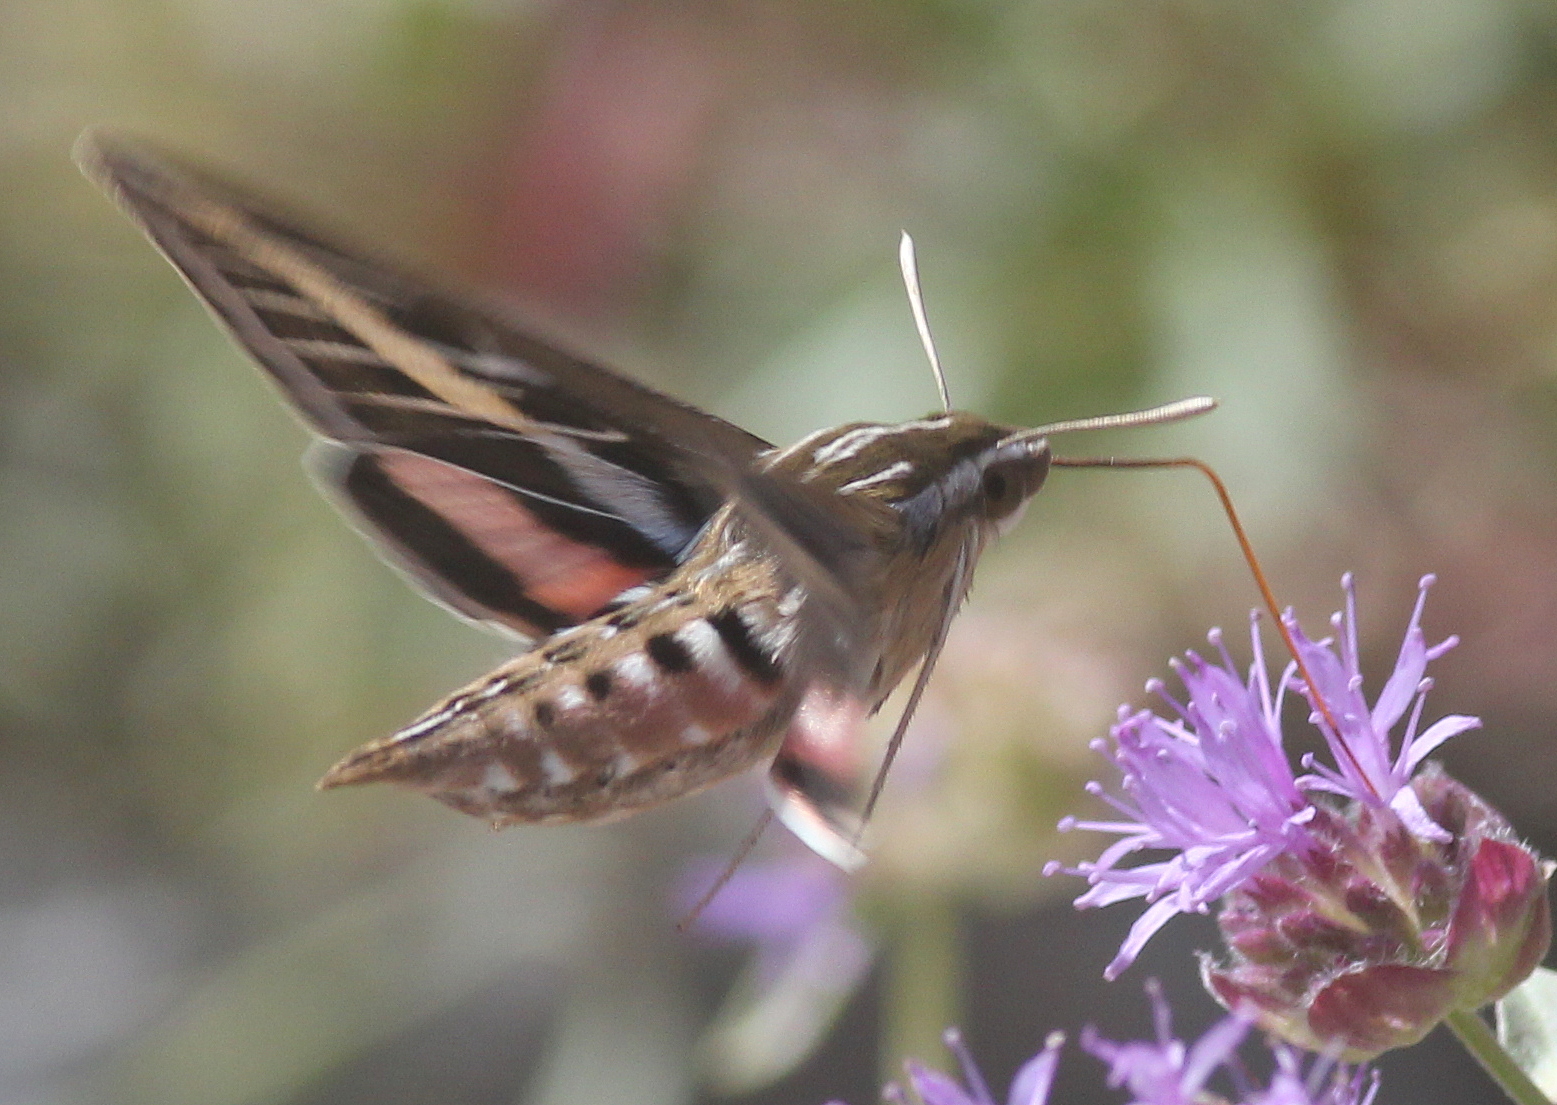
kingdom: Animalia
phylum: Arthropoda
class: Insecta
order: Lepidoptera
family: Sphingidae
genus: Hyles
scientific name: Hyles lineata
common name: White-lined sphinx
